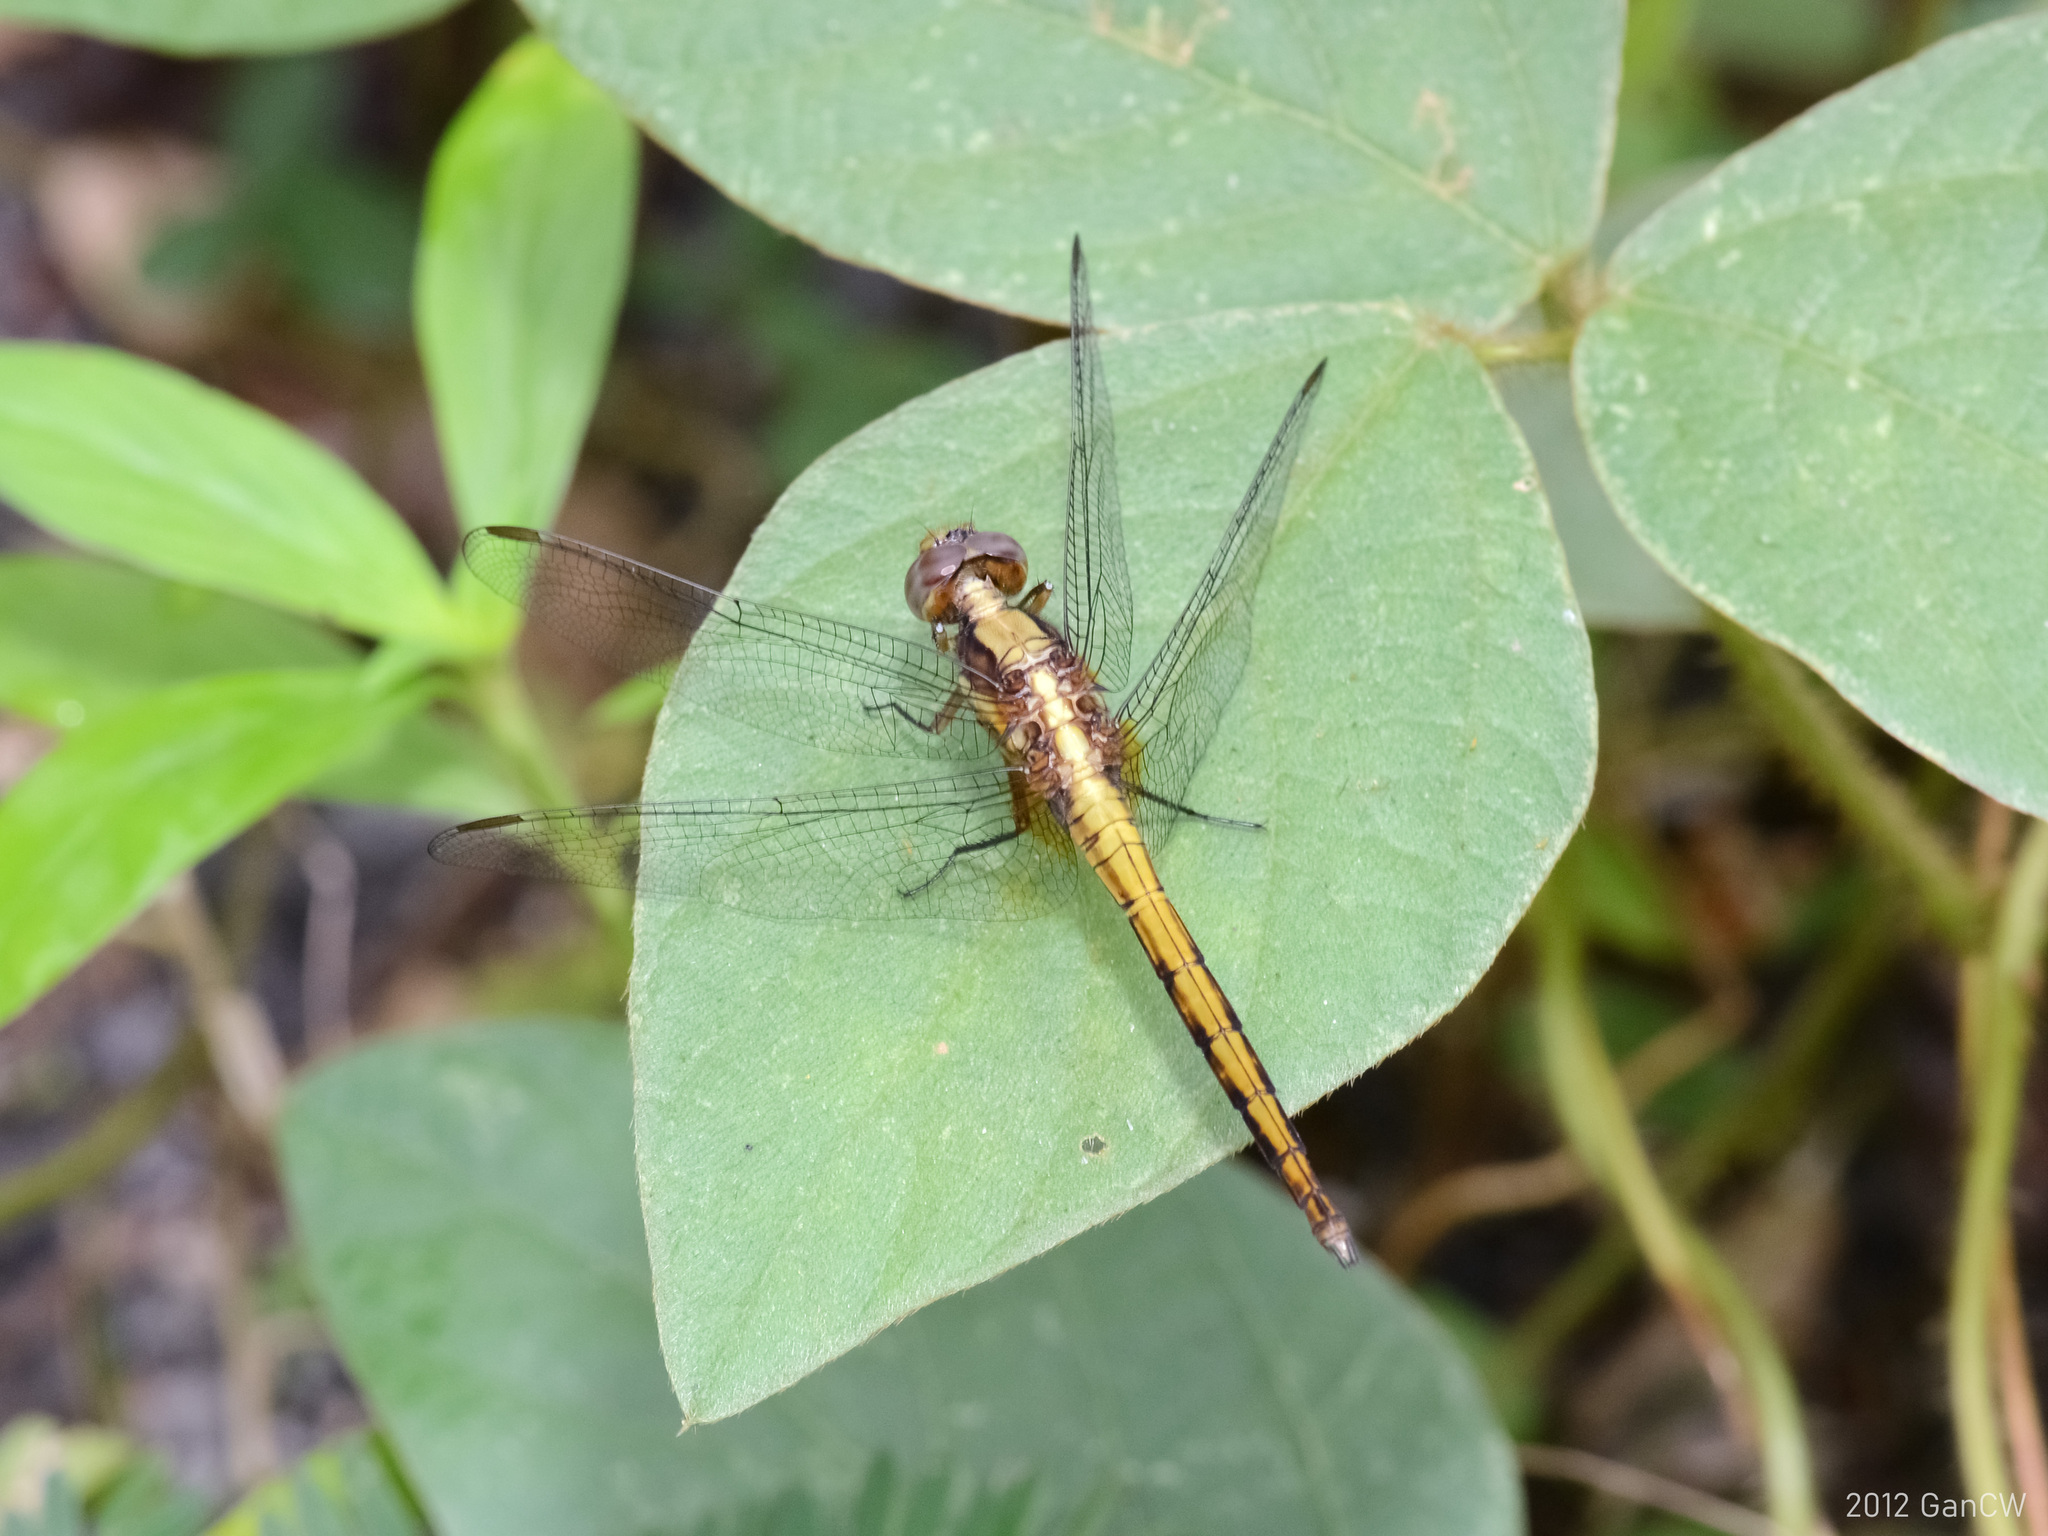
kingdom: Animalia
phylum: Arthropoda
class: Insecta
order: Odonata
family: Libellulidae
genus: Orthetrum
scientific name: Orthetrum glaucum
